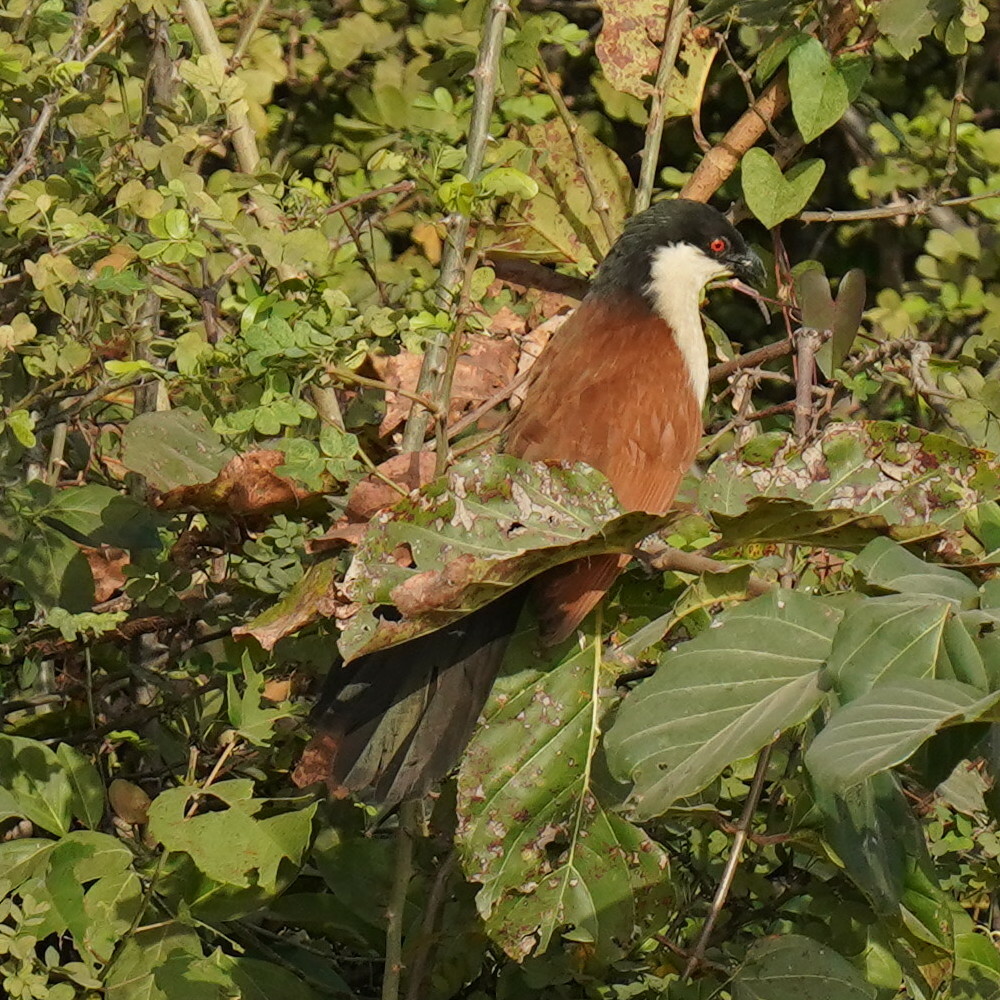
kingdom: Animalia
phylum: Chordata
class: Aves
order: Cuculiformes
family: Cuculidae
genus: Centropus
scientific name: Centropus senegalensis
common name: Senegal coucal
